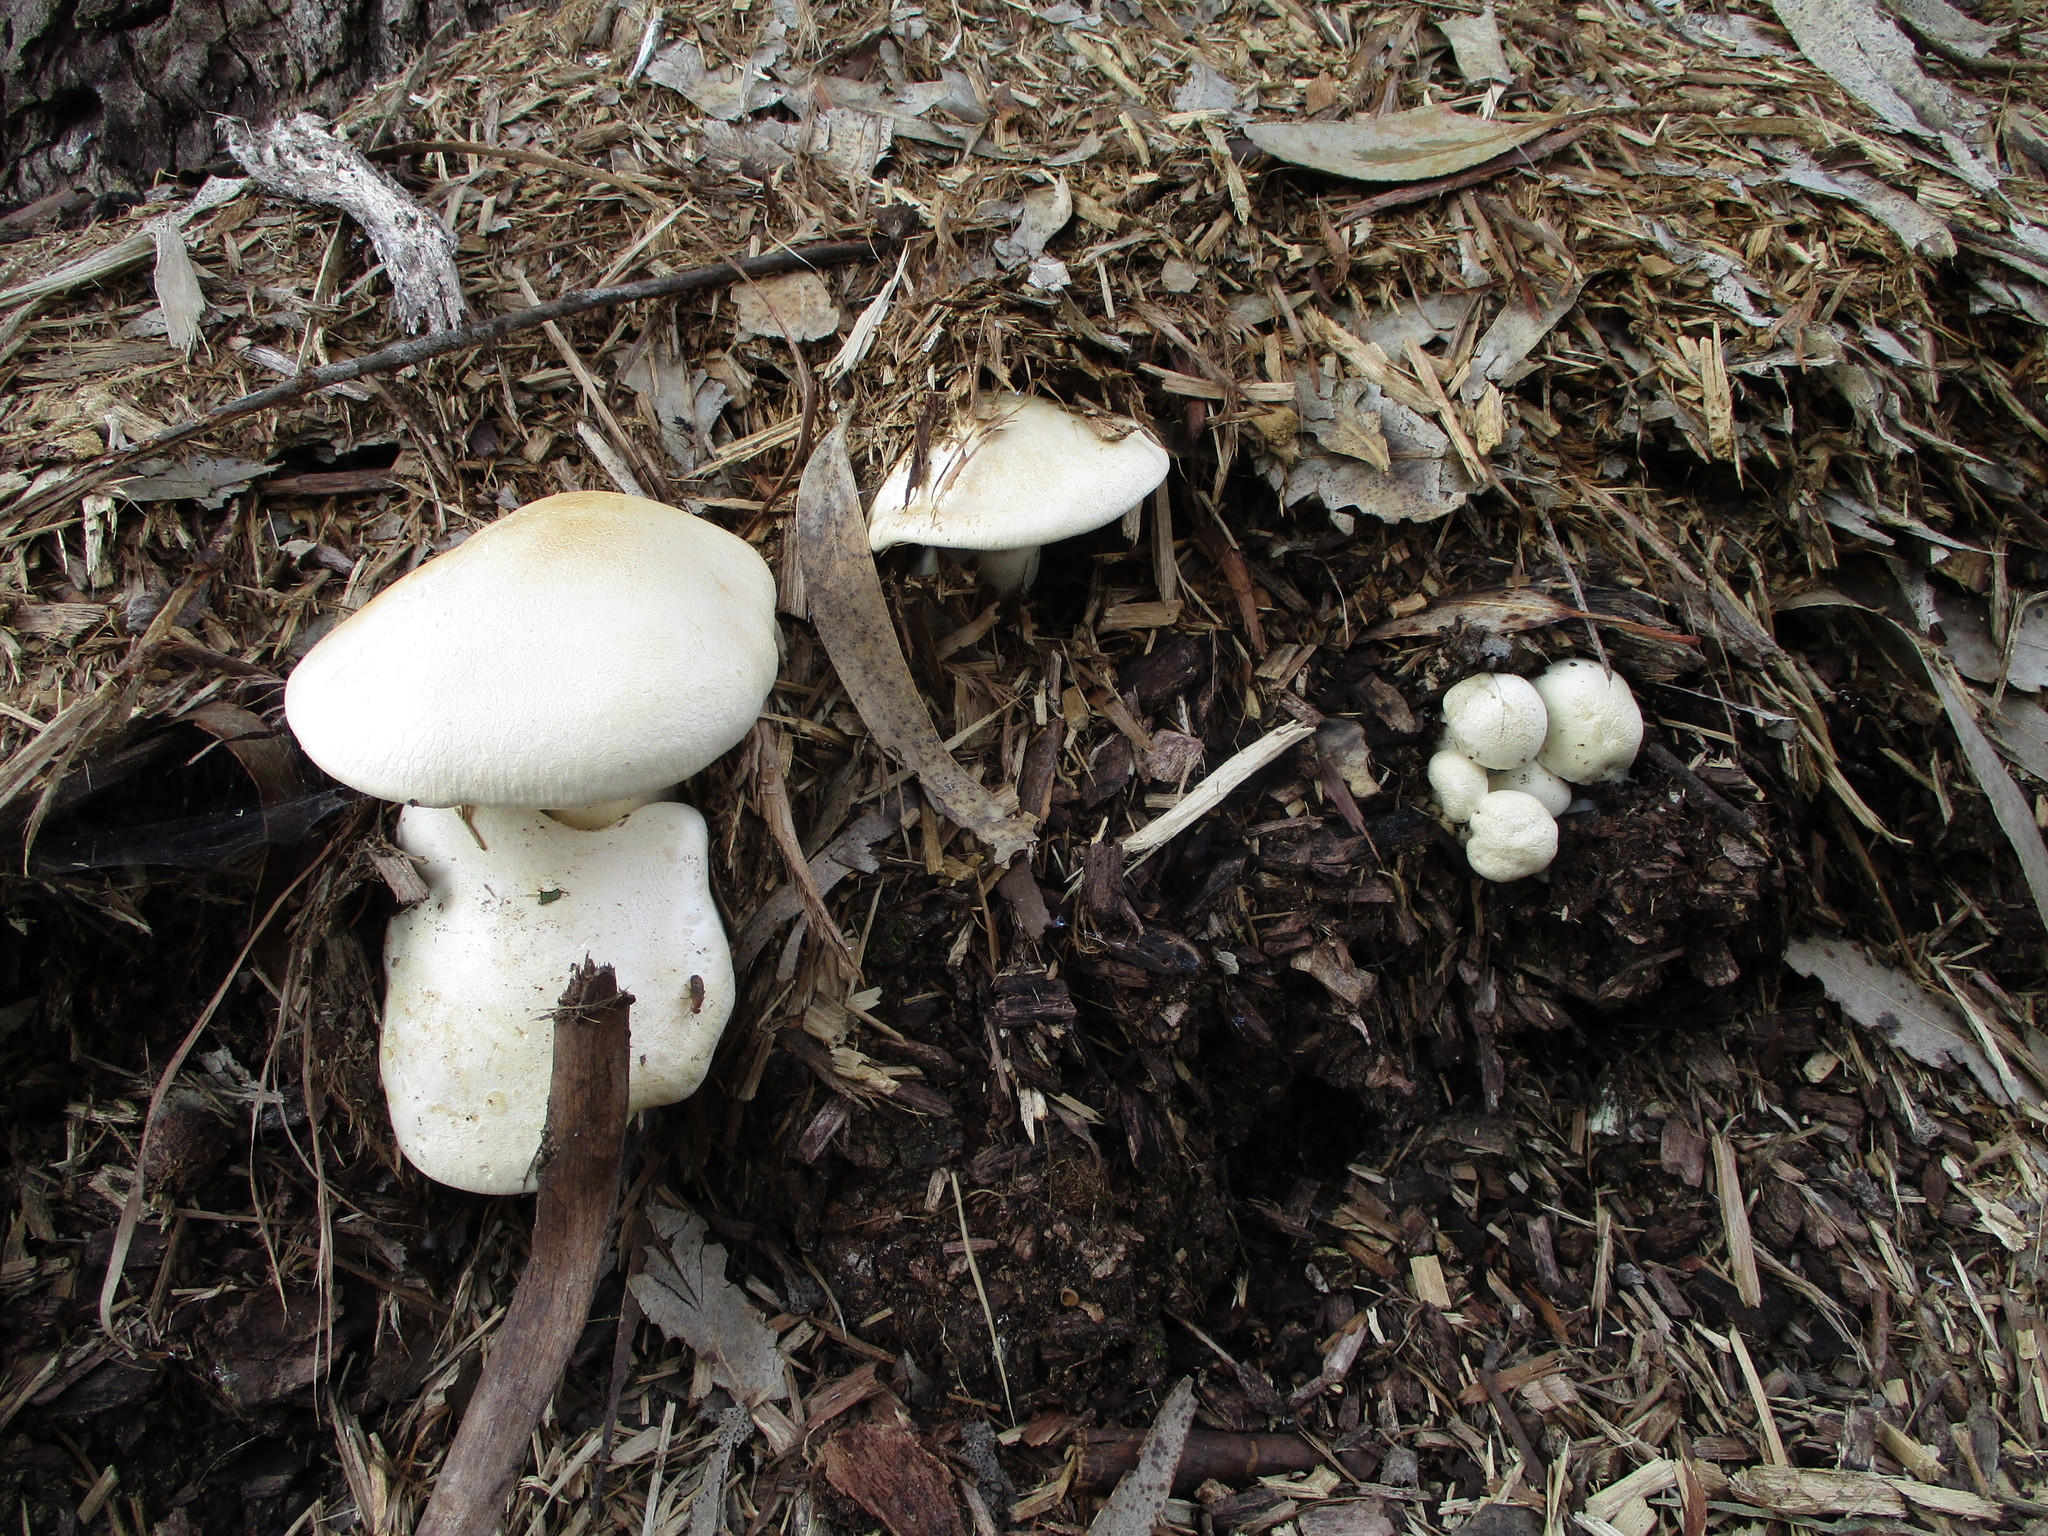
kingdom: Fungi
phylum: Basidiomycota
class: Agaricomycetes
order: Agaricales
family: Tricholomataceae
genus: Leucopaxillus
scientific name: Leucopaxillus albissimus
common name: Large white leucopax
